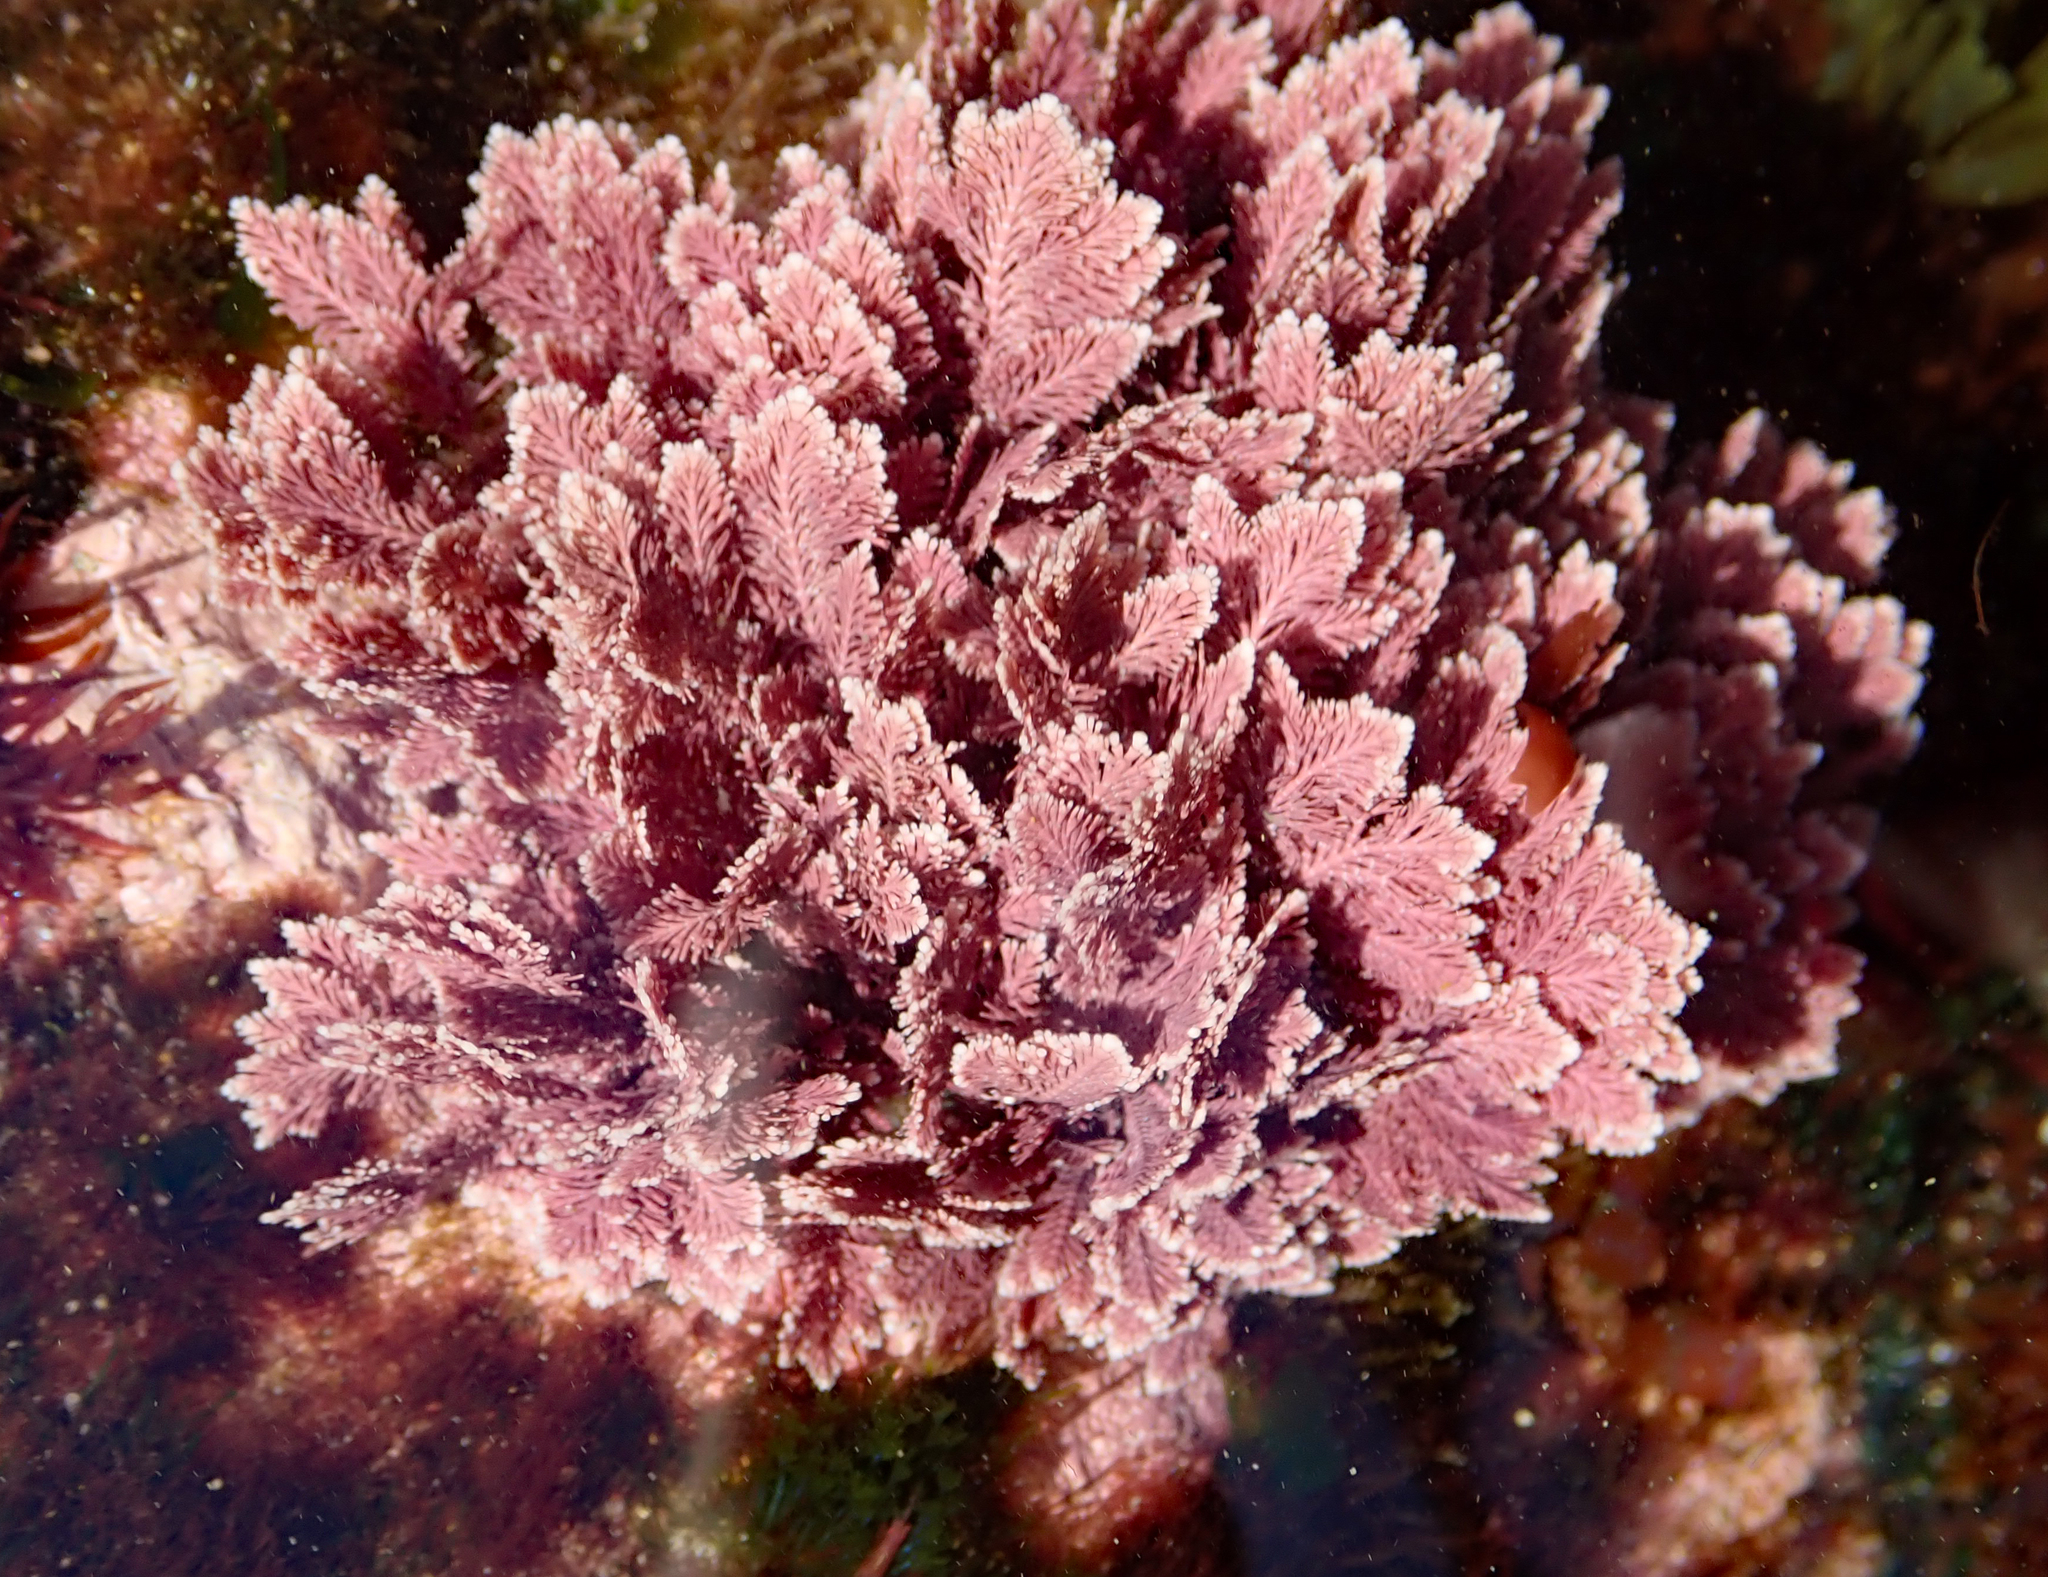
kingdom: Plantae
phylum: Rhodophyta
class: Florideophyceae
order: Corallinales
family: Corallinaceae
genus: Jania
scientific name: Jania rosea
